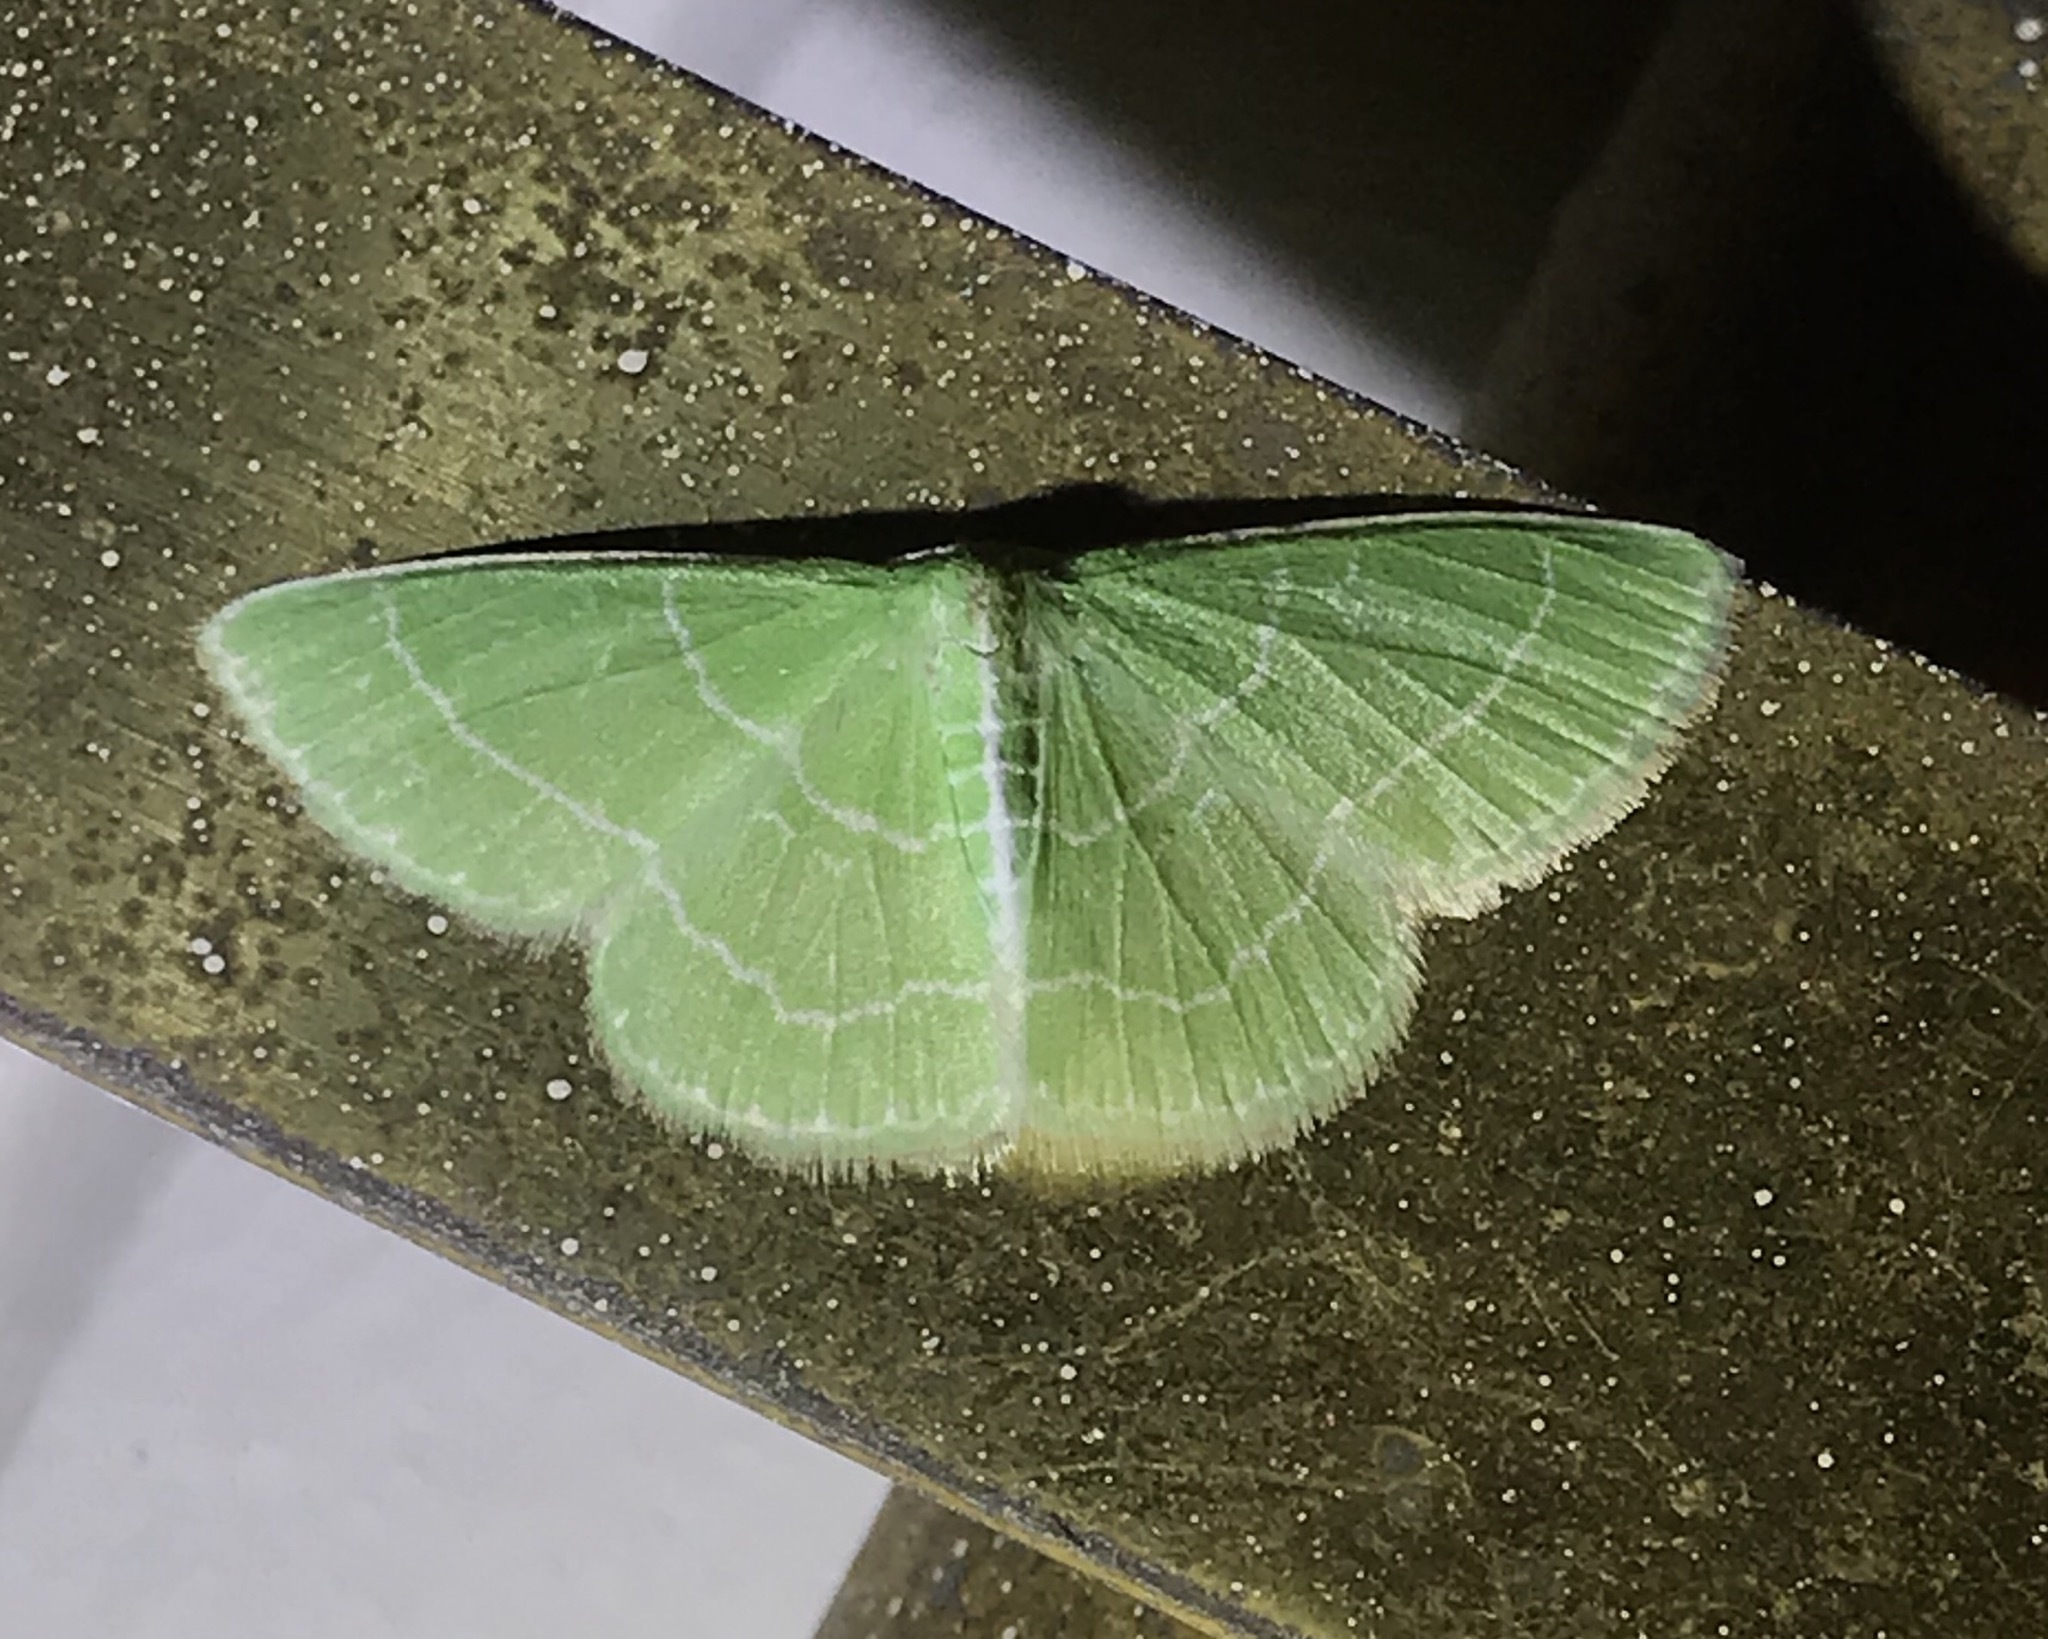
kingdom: Animalia
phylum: Arthropoda
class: Insecta
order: Lepidoptera
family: Geometridae
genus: Synchlora
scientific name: Synchlora aerata
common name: Wavy-lined emerald
